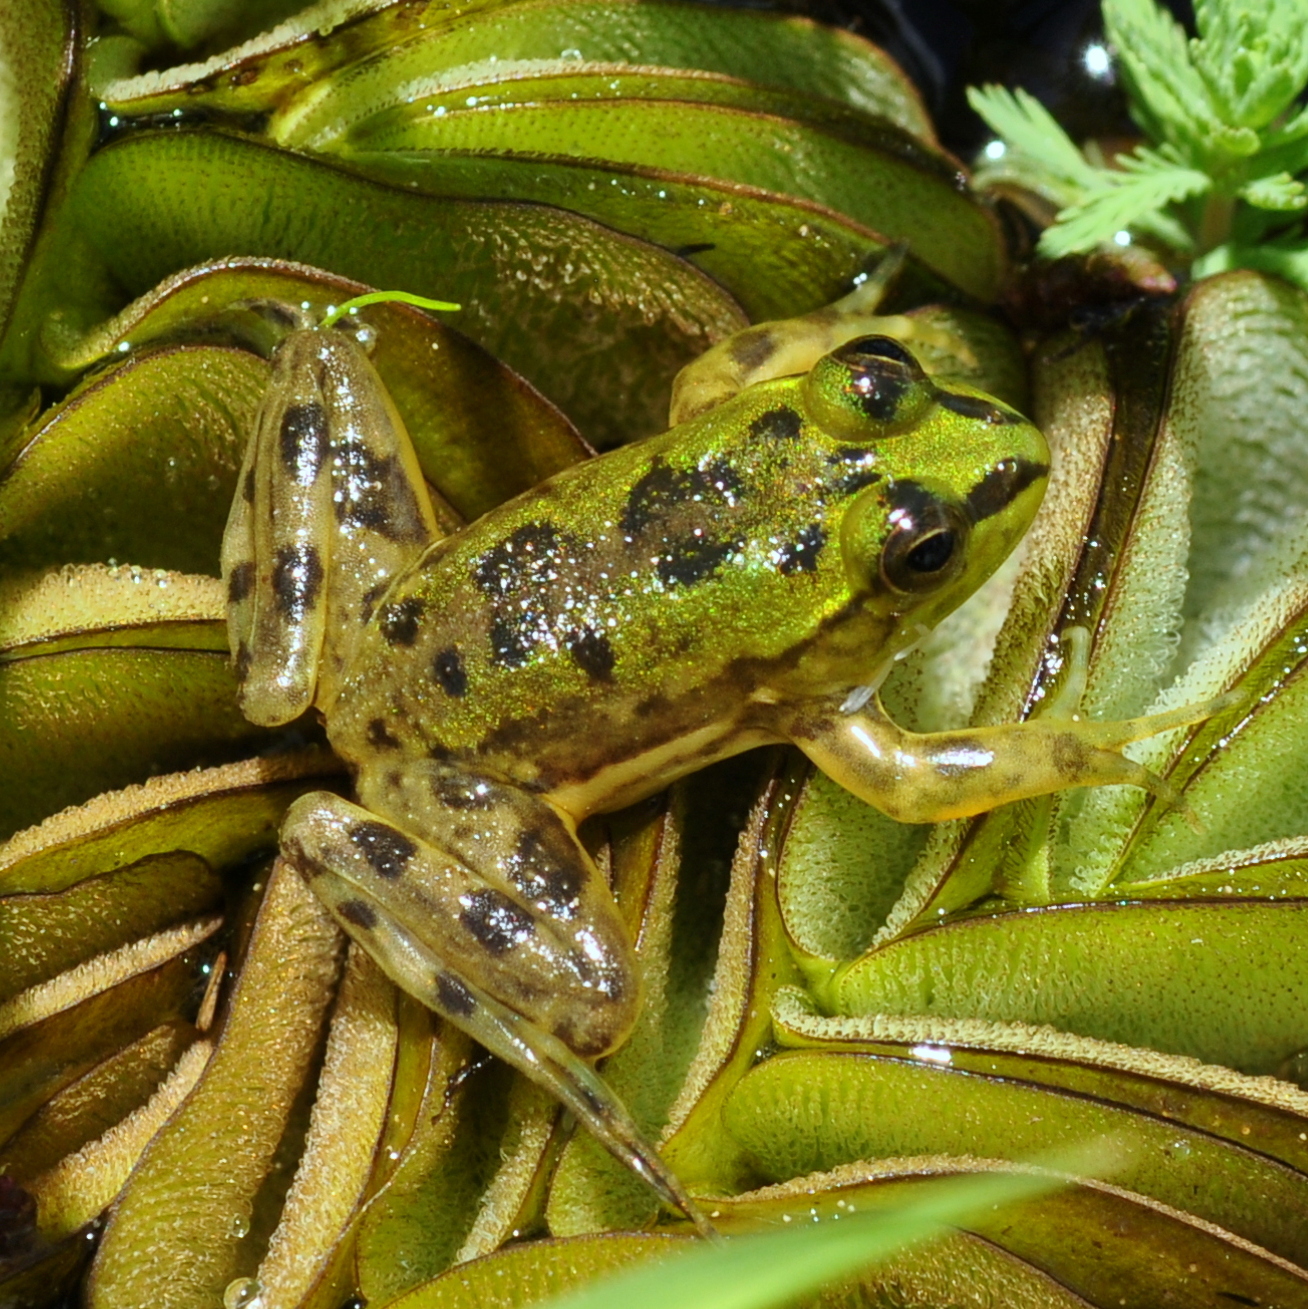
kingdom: Animalia
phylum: Chordata
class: Amphibia
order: Anura
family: Hylidae
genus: Pseudis
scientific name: Pseudis minuta
